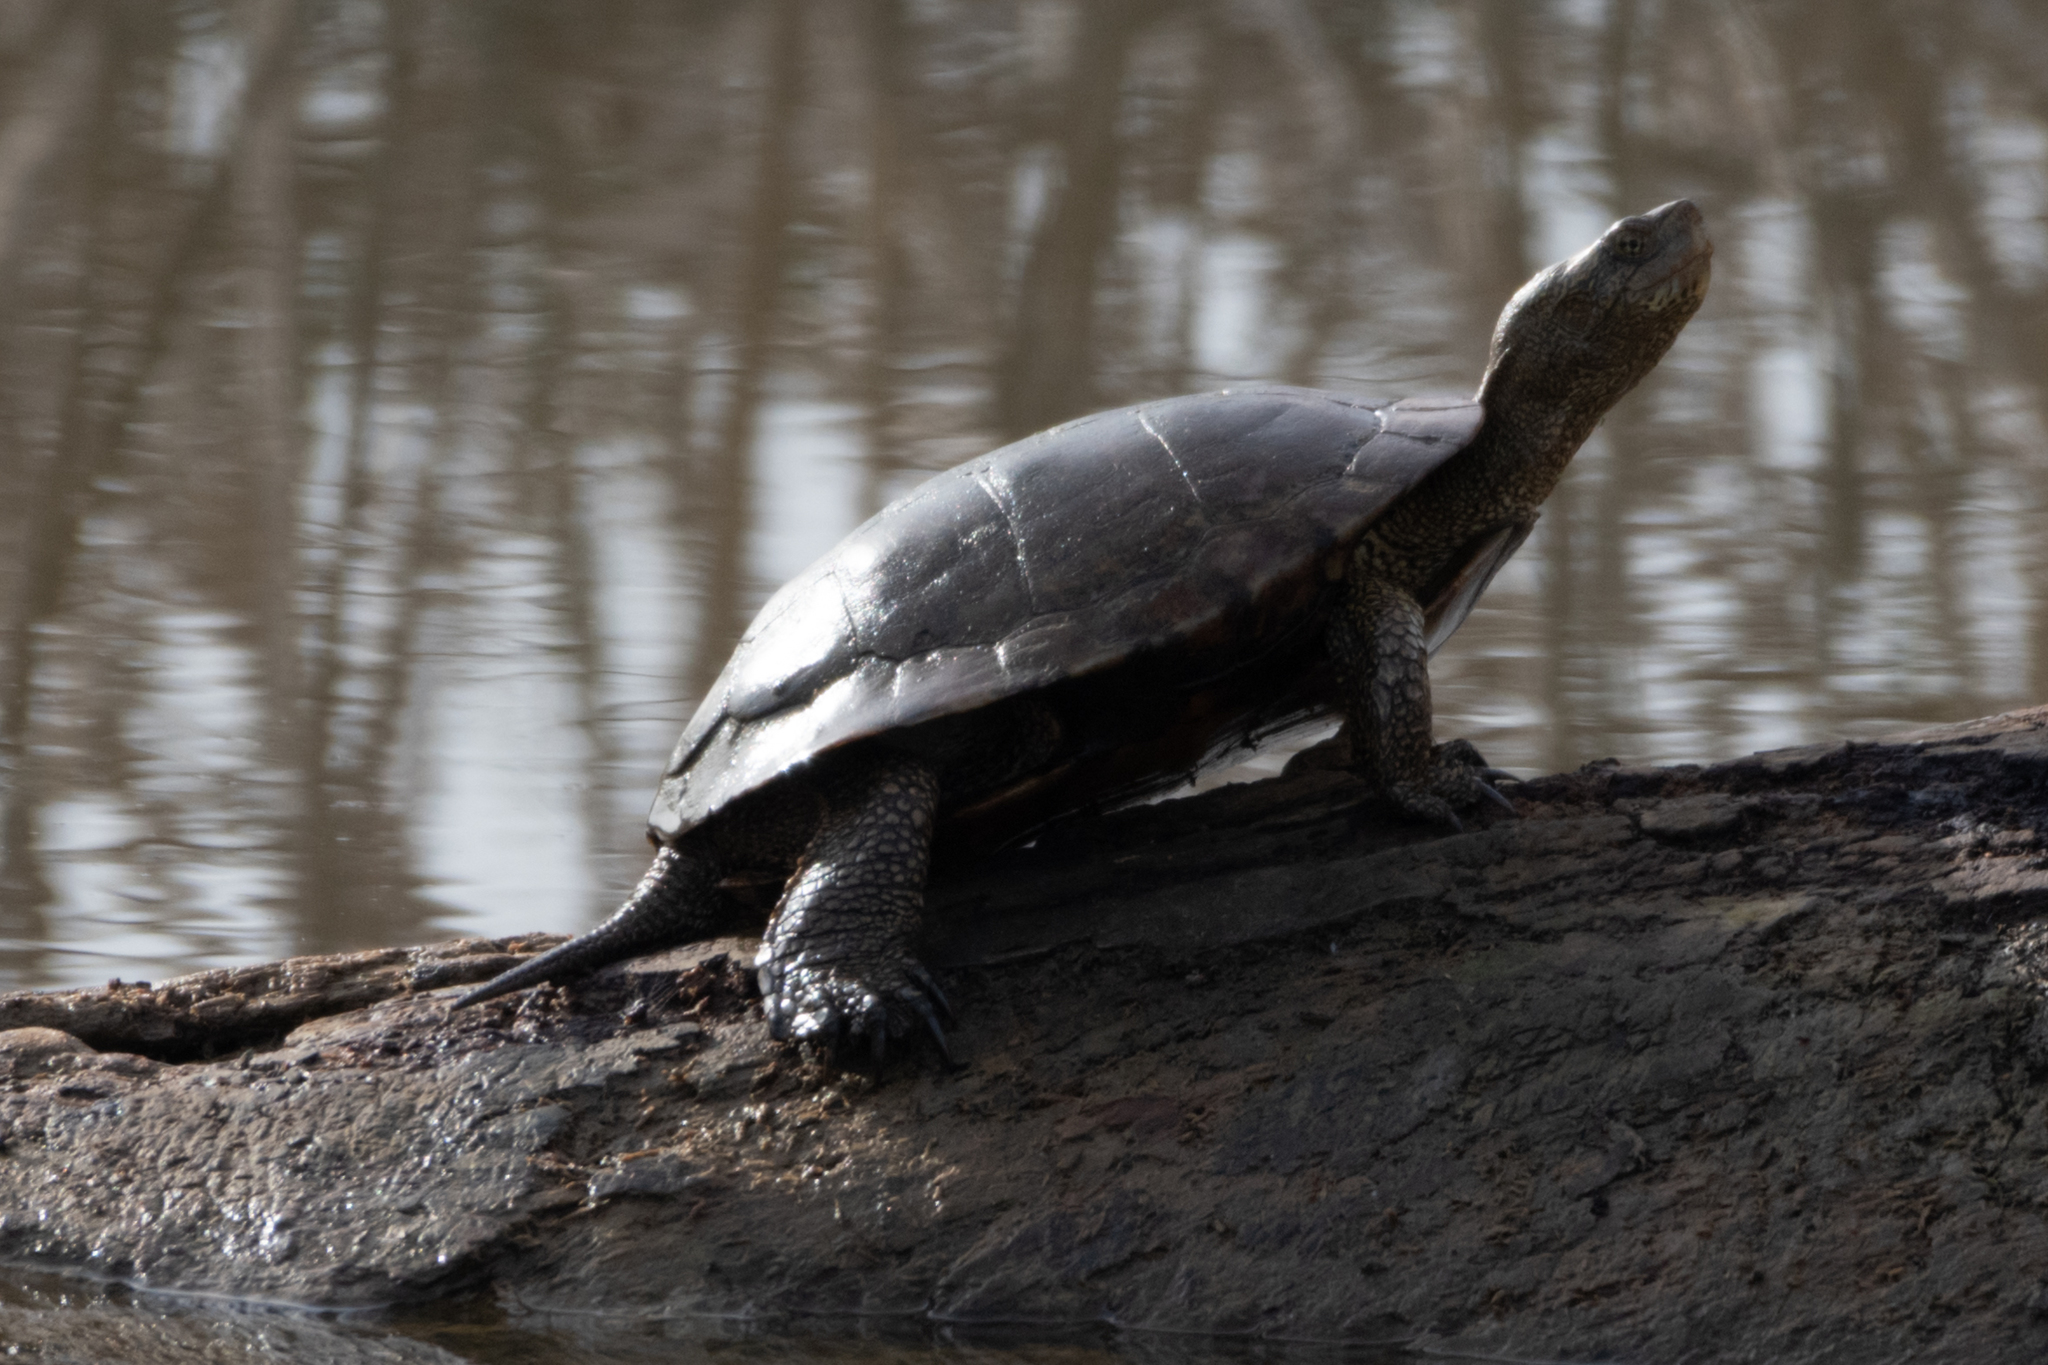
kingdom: Animalia
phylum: Chordata
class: Testudines
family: Emydidae
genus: Actinemys
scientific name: Actinemys marmorata
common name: Western pond turtle
